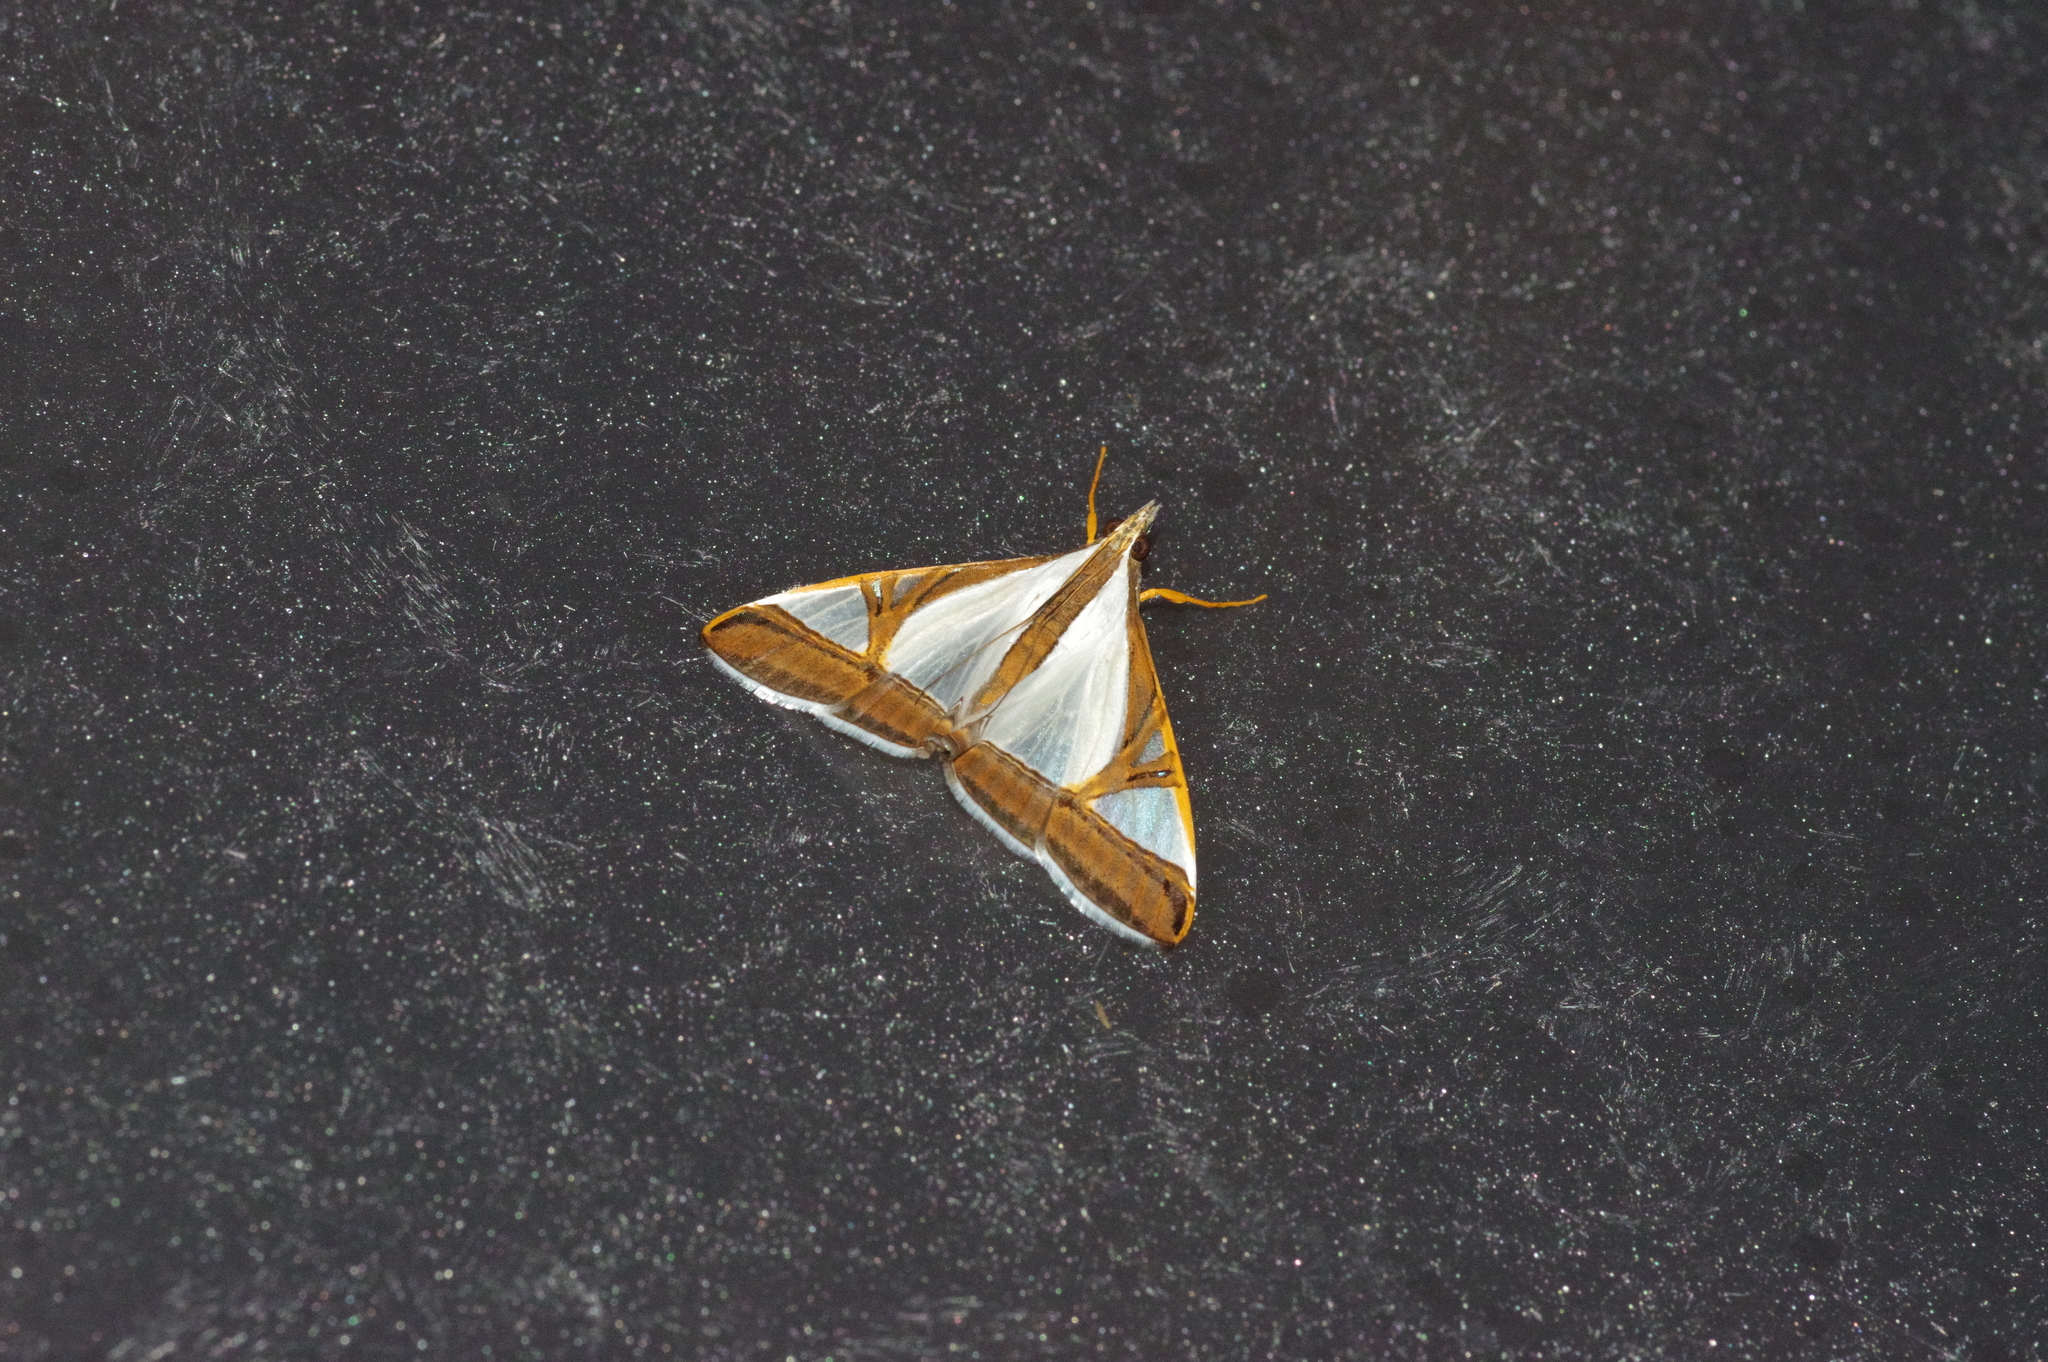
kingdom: Animalia
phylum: Arthropoda
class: Insecta
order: Lepidoptera
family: Crambidae
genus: Agrioglypta
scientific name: Agrioglypta eurytusalis
